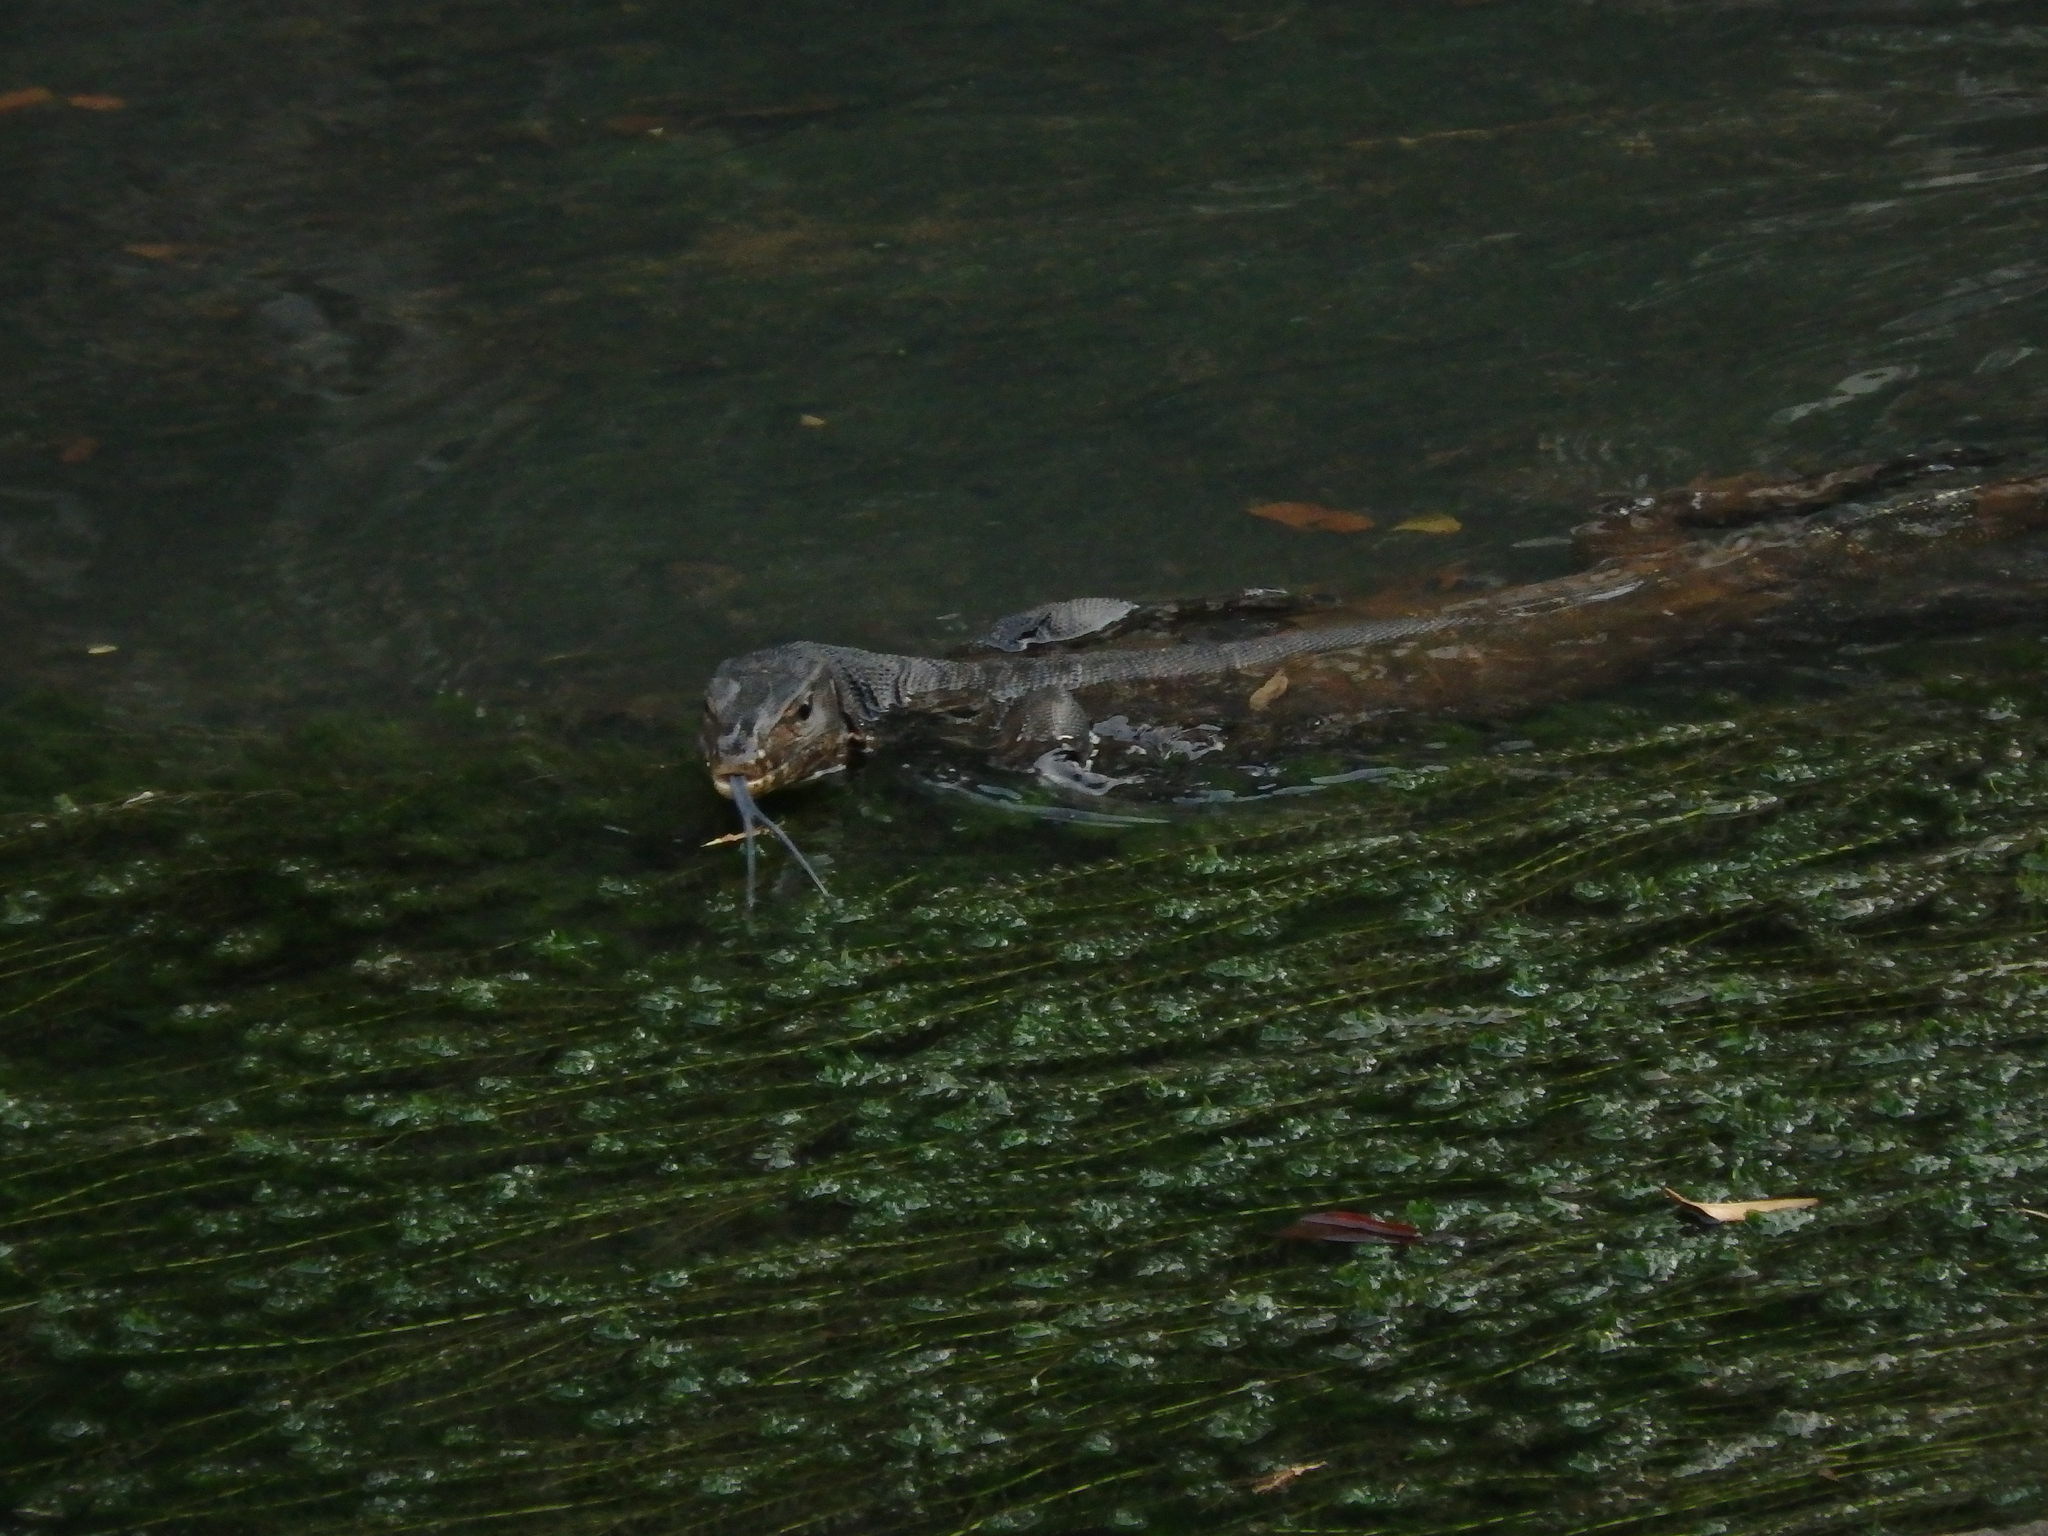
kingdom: Animalia
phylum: Chordata
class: Squamata
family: Varanidae
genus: Varanus
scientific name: Varanus salvator
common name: Common water monitor
